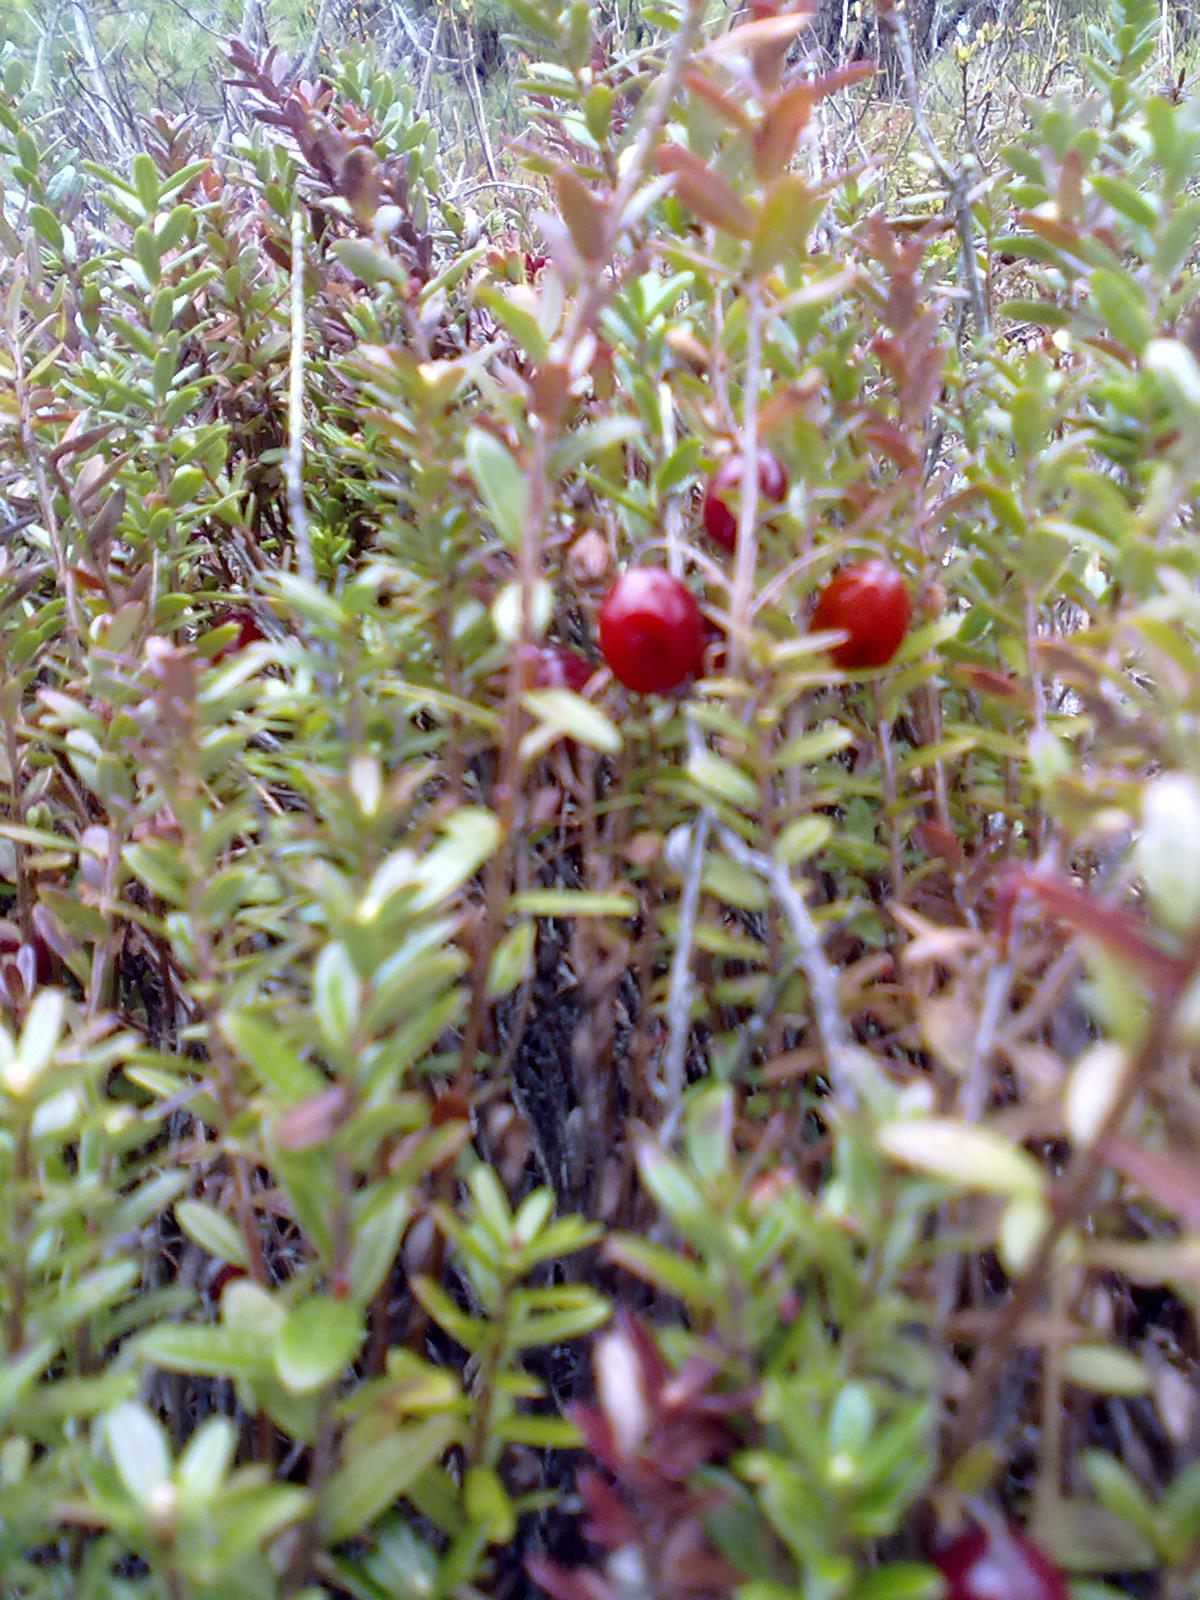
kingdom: Plantae
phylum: Tracheophyta
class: Magnoliopsida
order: Ericales
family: Ericaceae
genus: Vaccinium
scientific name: Vaccinium macrocarpon
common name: American cranberry
